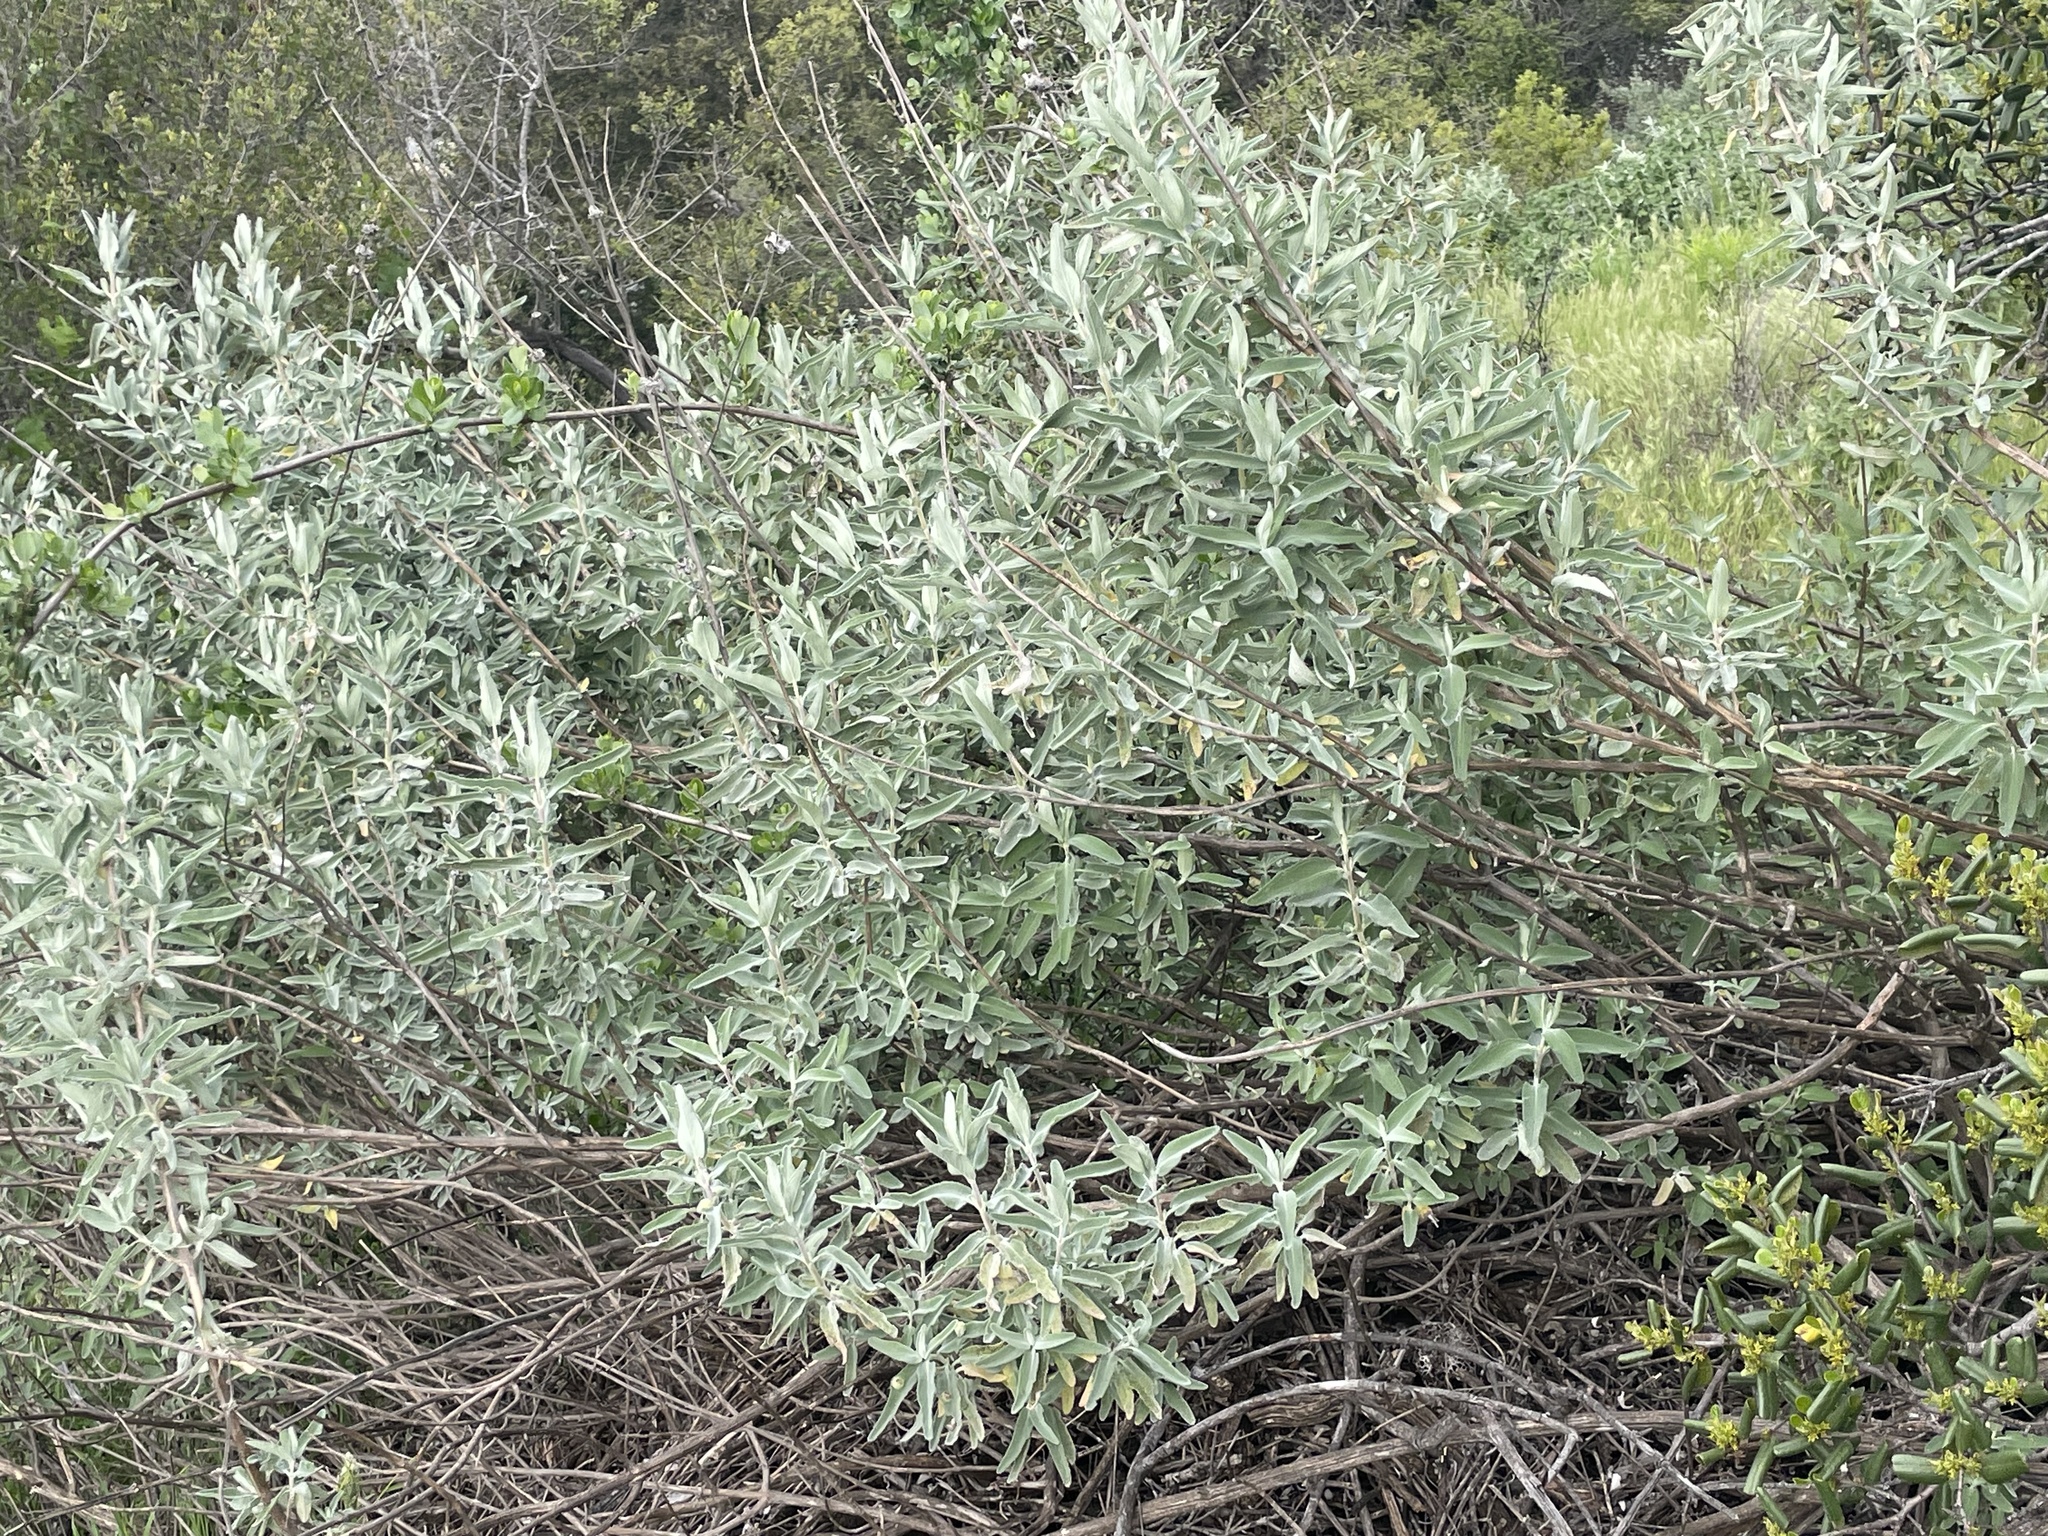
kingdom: Plantae
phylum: Tracheophyta
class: Magnoliopsida
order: Lamiales
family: Lamiaceae
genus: Salvia
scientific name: Salvia leucophylla
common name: Purple sage
